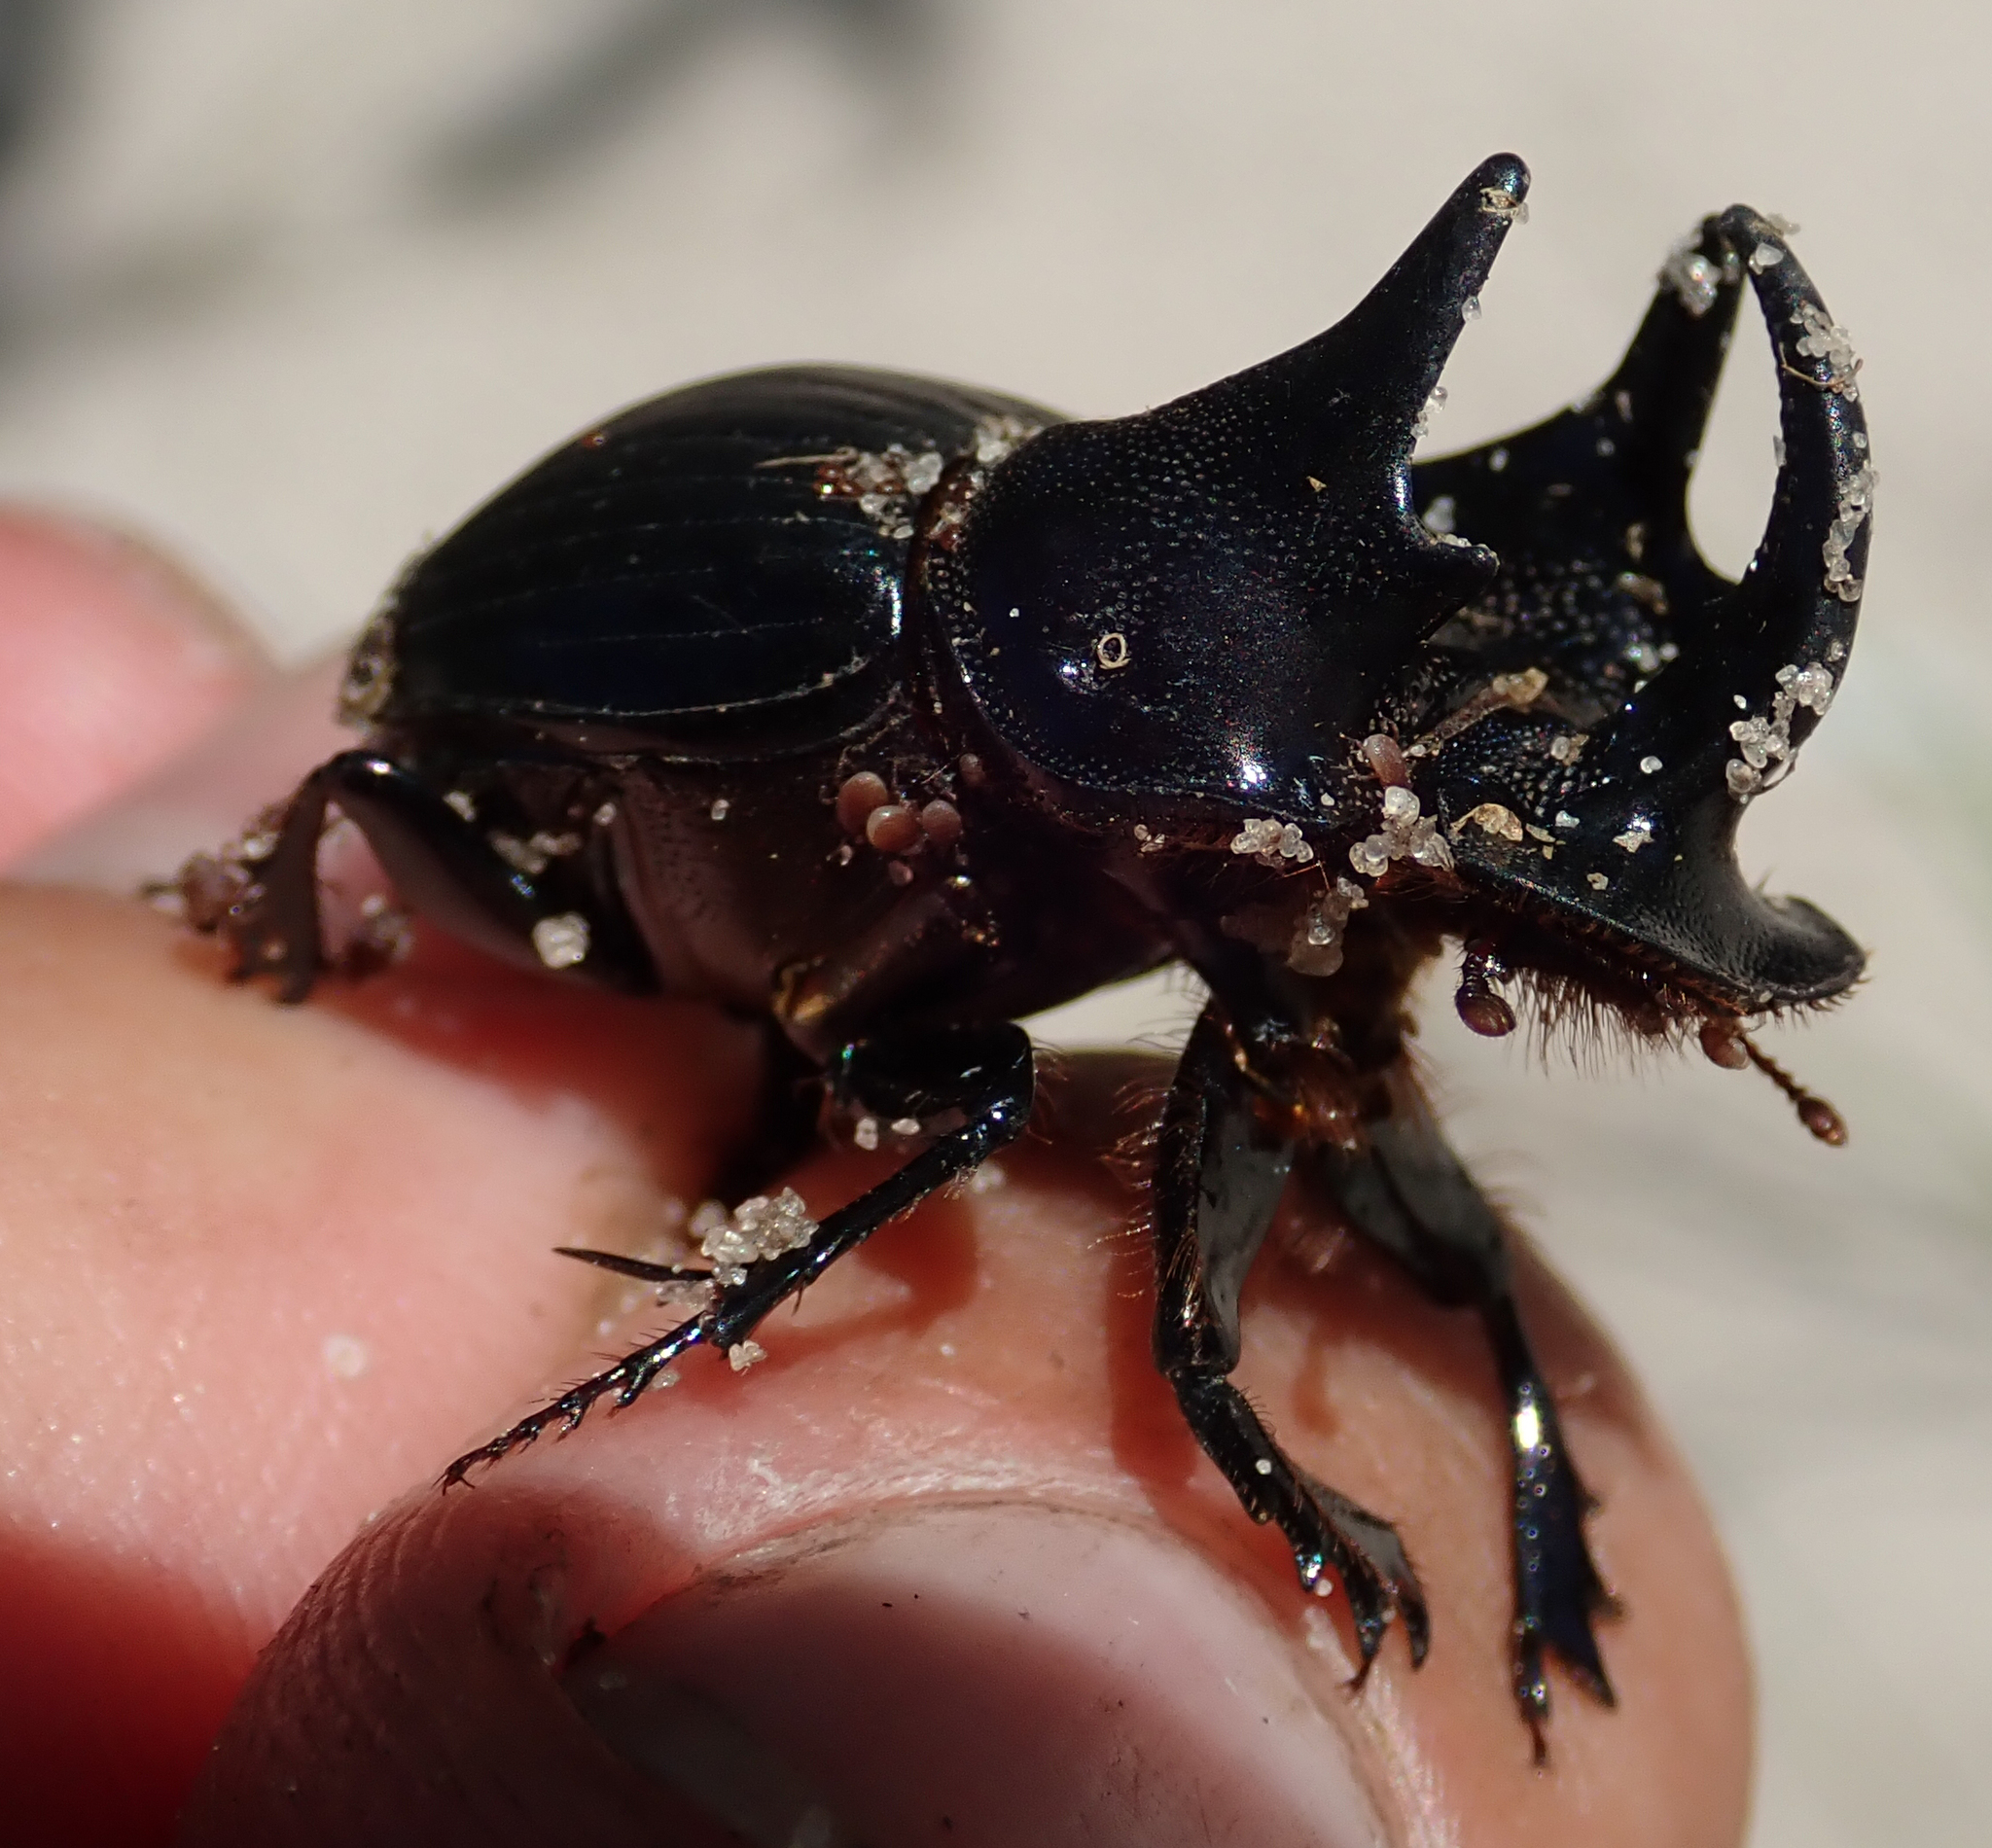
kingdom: Animalia
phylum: Arthropoda
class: Insecta
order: Coleoptera
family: Scarabaeidae
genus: Copris
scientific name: Copris bootes
